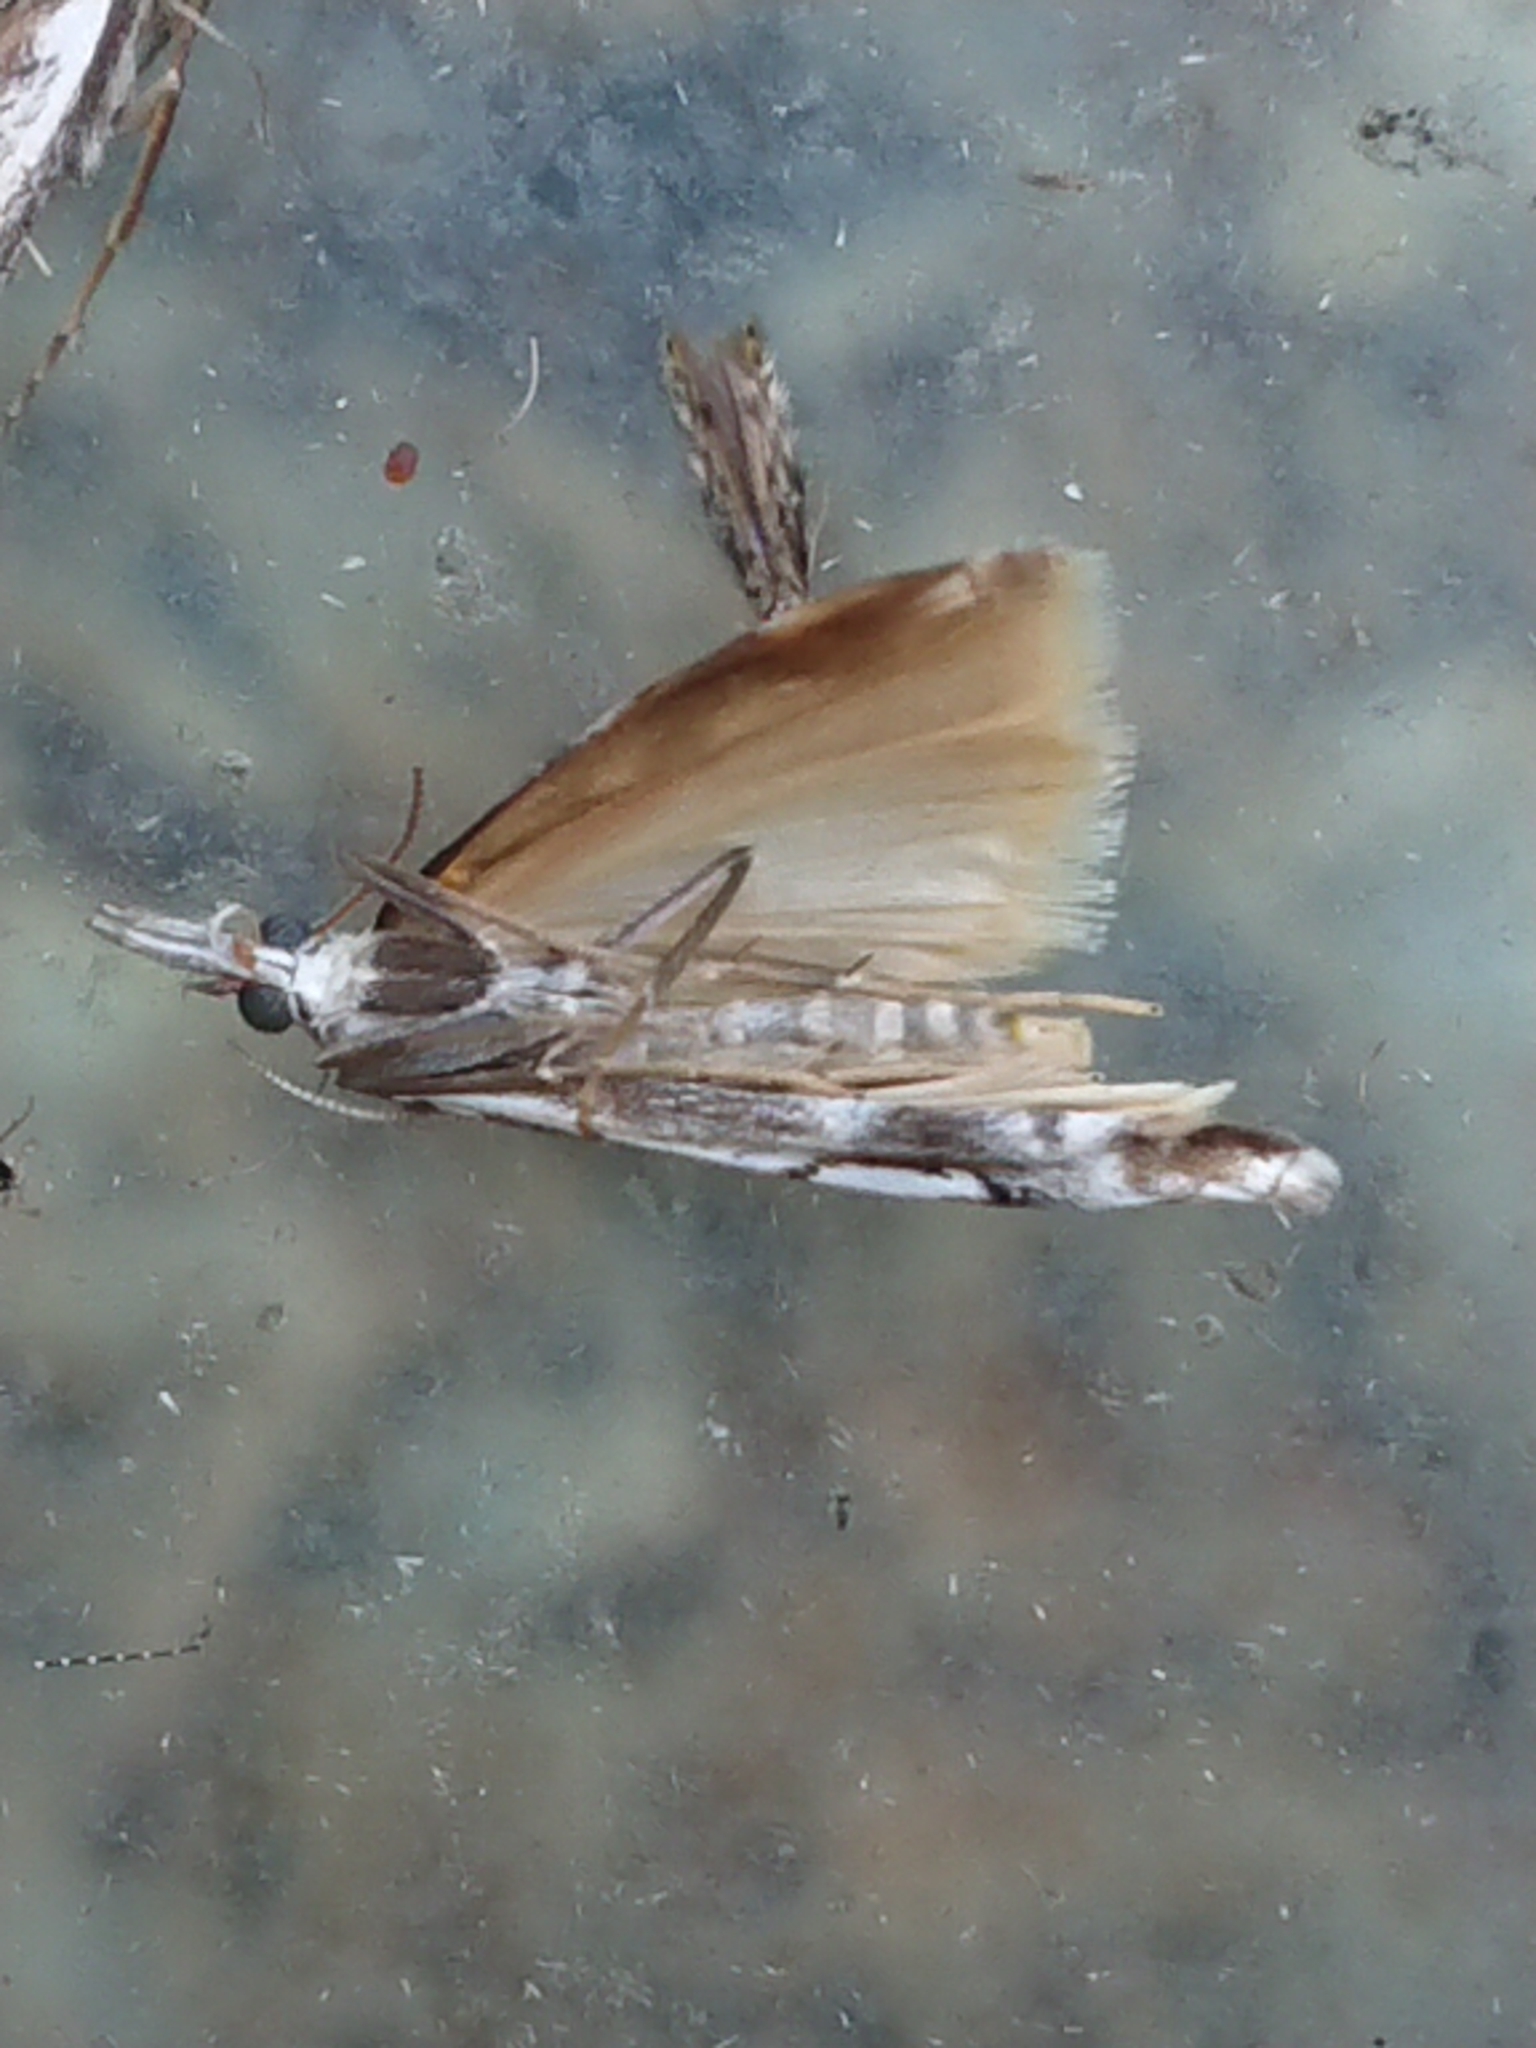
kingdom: Animalia
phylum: Arthropoda
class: Insecta
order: Lepidoptera
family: Crambidae
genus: Orocrambus
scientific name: Orocrambus vulgaris
